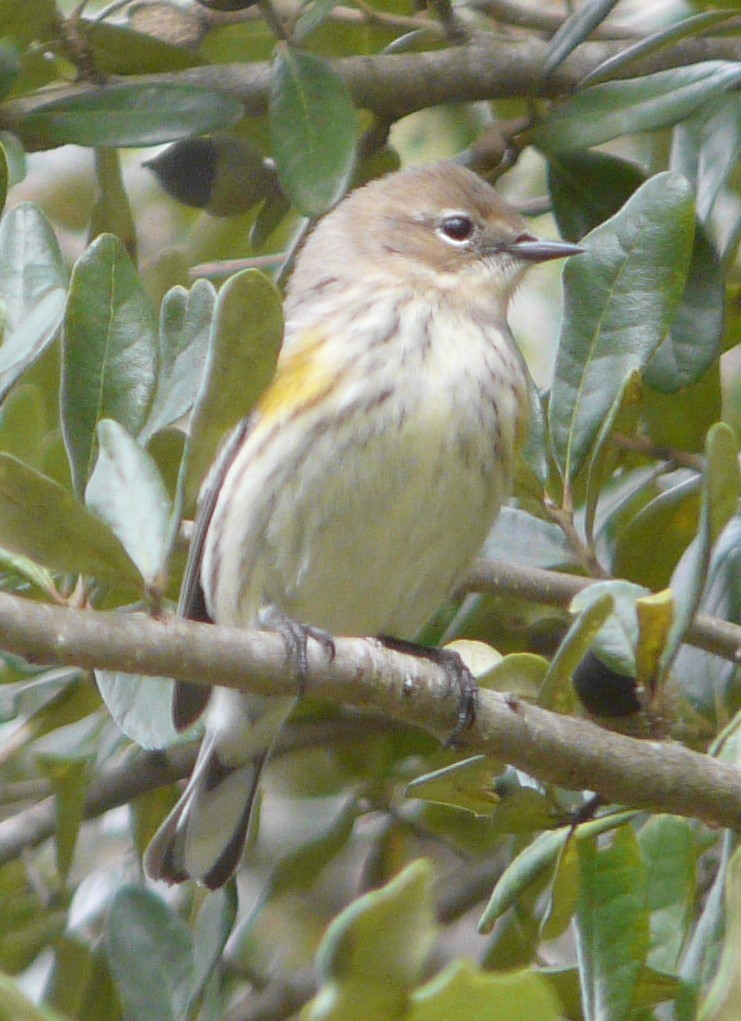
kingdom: Animalia
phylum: Chordata
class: Aves
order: Passeriformes
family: Parulidae
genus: Setophaga
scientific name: Setophaga coronata
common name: Myrtle warbler
